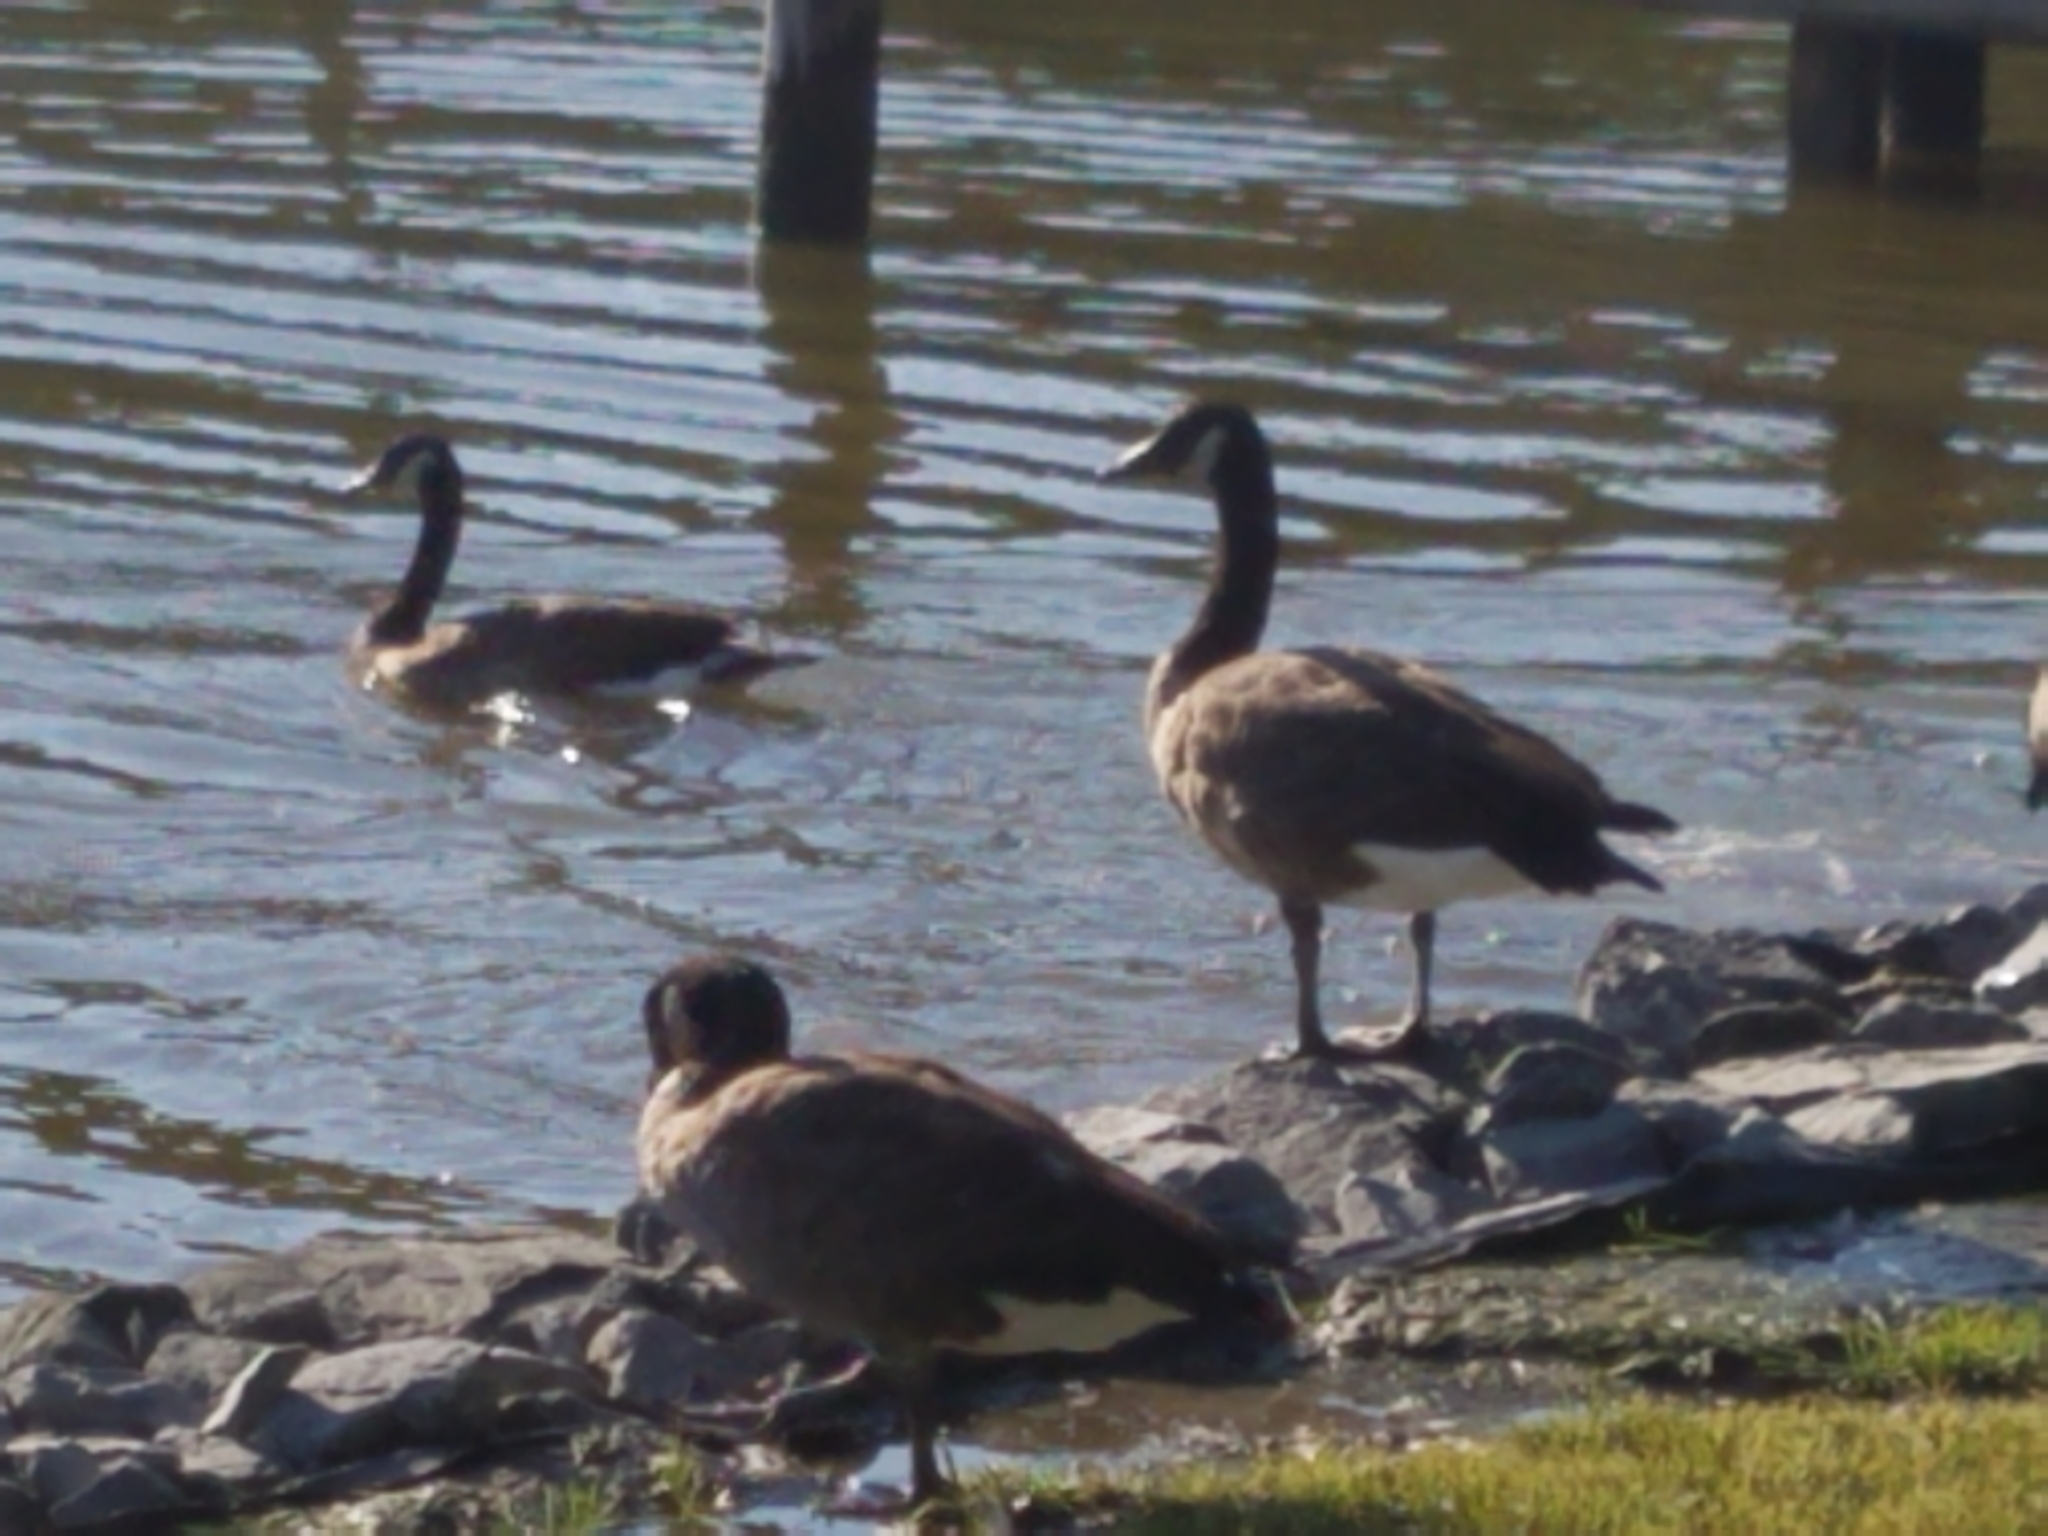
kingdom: Animalia
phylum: Chordata
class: Aves
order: Anseriformes
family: Anatidae
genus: Branta
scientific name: Branta canadensis
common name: Canada goose
